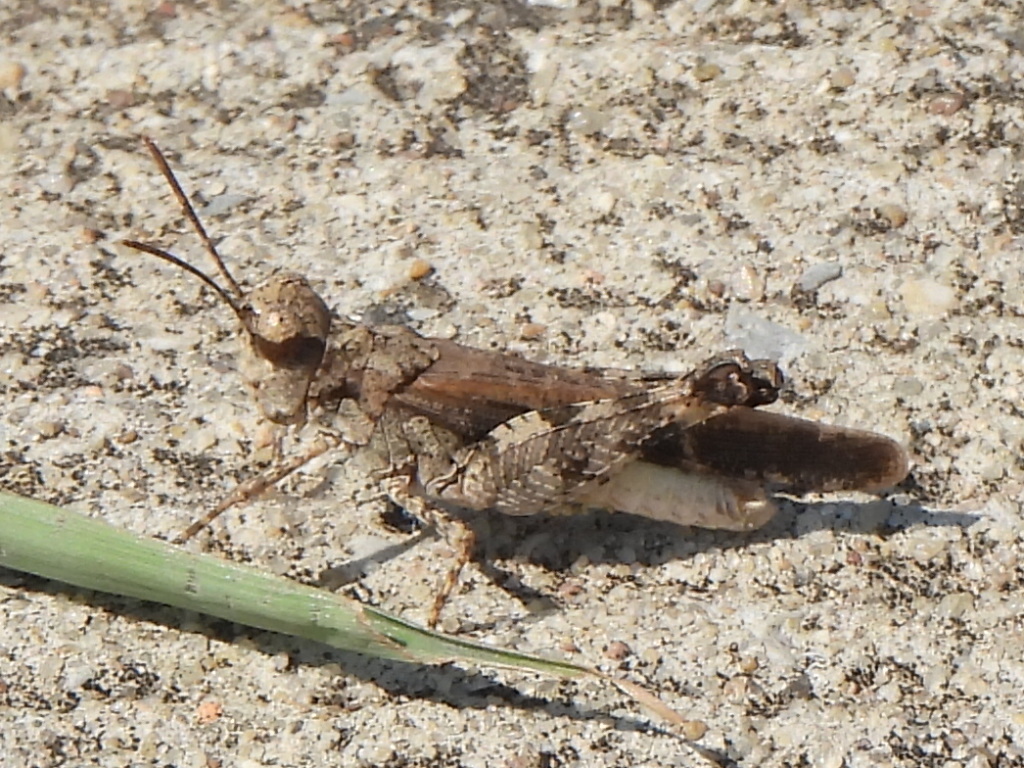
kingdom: Animalia
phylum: Arthropoda
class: Insecta
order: Orthoptera
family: Acrididae
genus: Nebulatettix
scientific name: Nebulatettix subgracilis
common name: Southwestern dusky grasshopper
